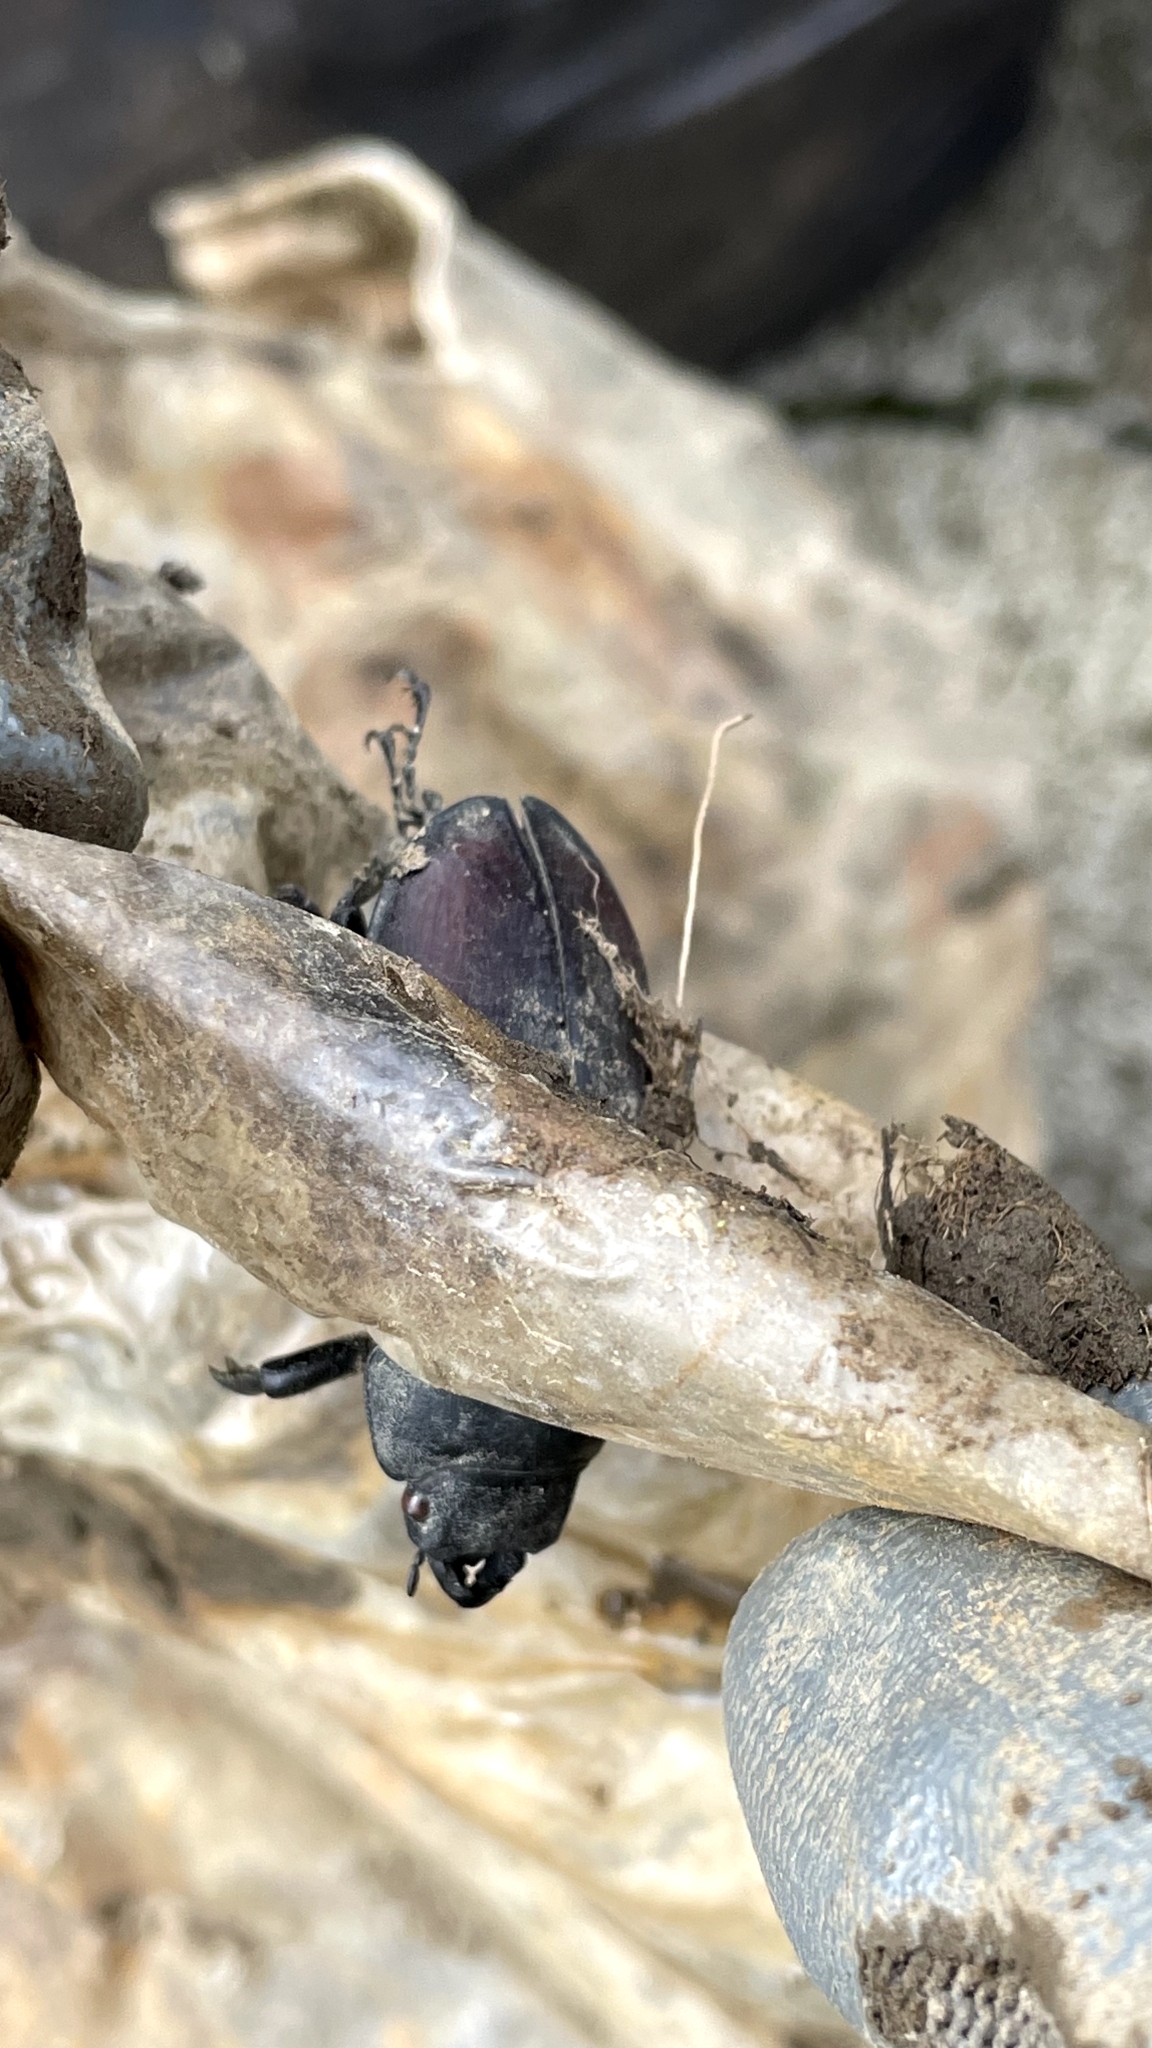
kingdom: Animalia
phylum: Arthropoda
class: Insecta
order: Coleoptera
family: Lucanidae
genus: Lucanus
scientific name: Lucanus cervus
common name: Stag beetle
